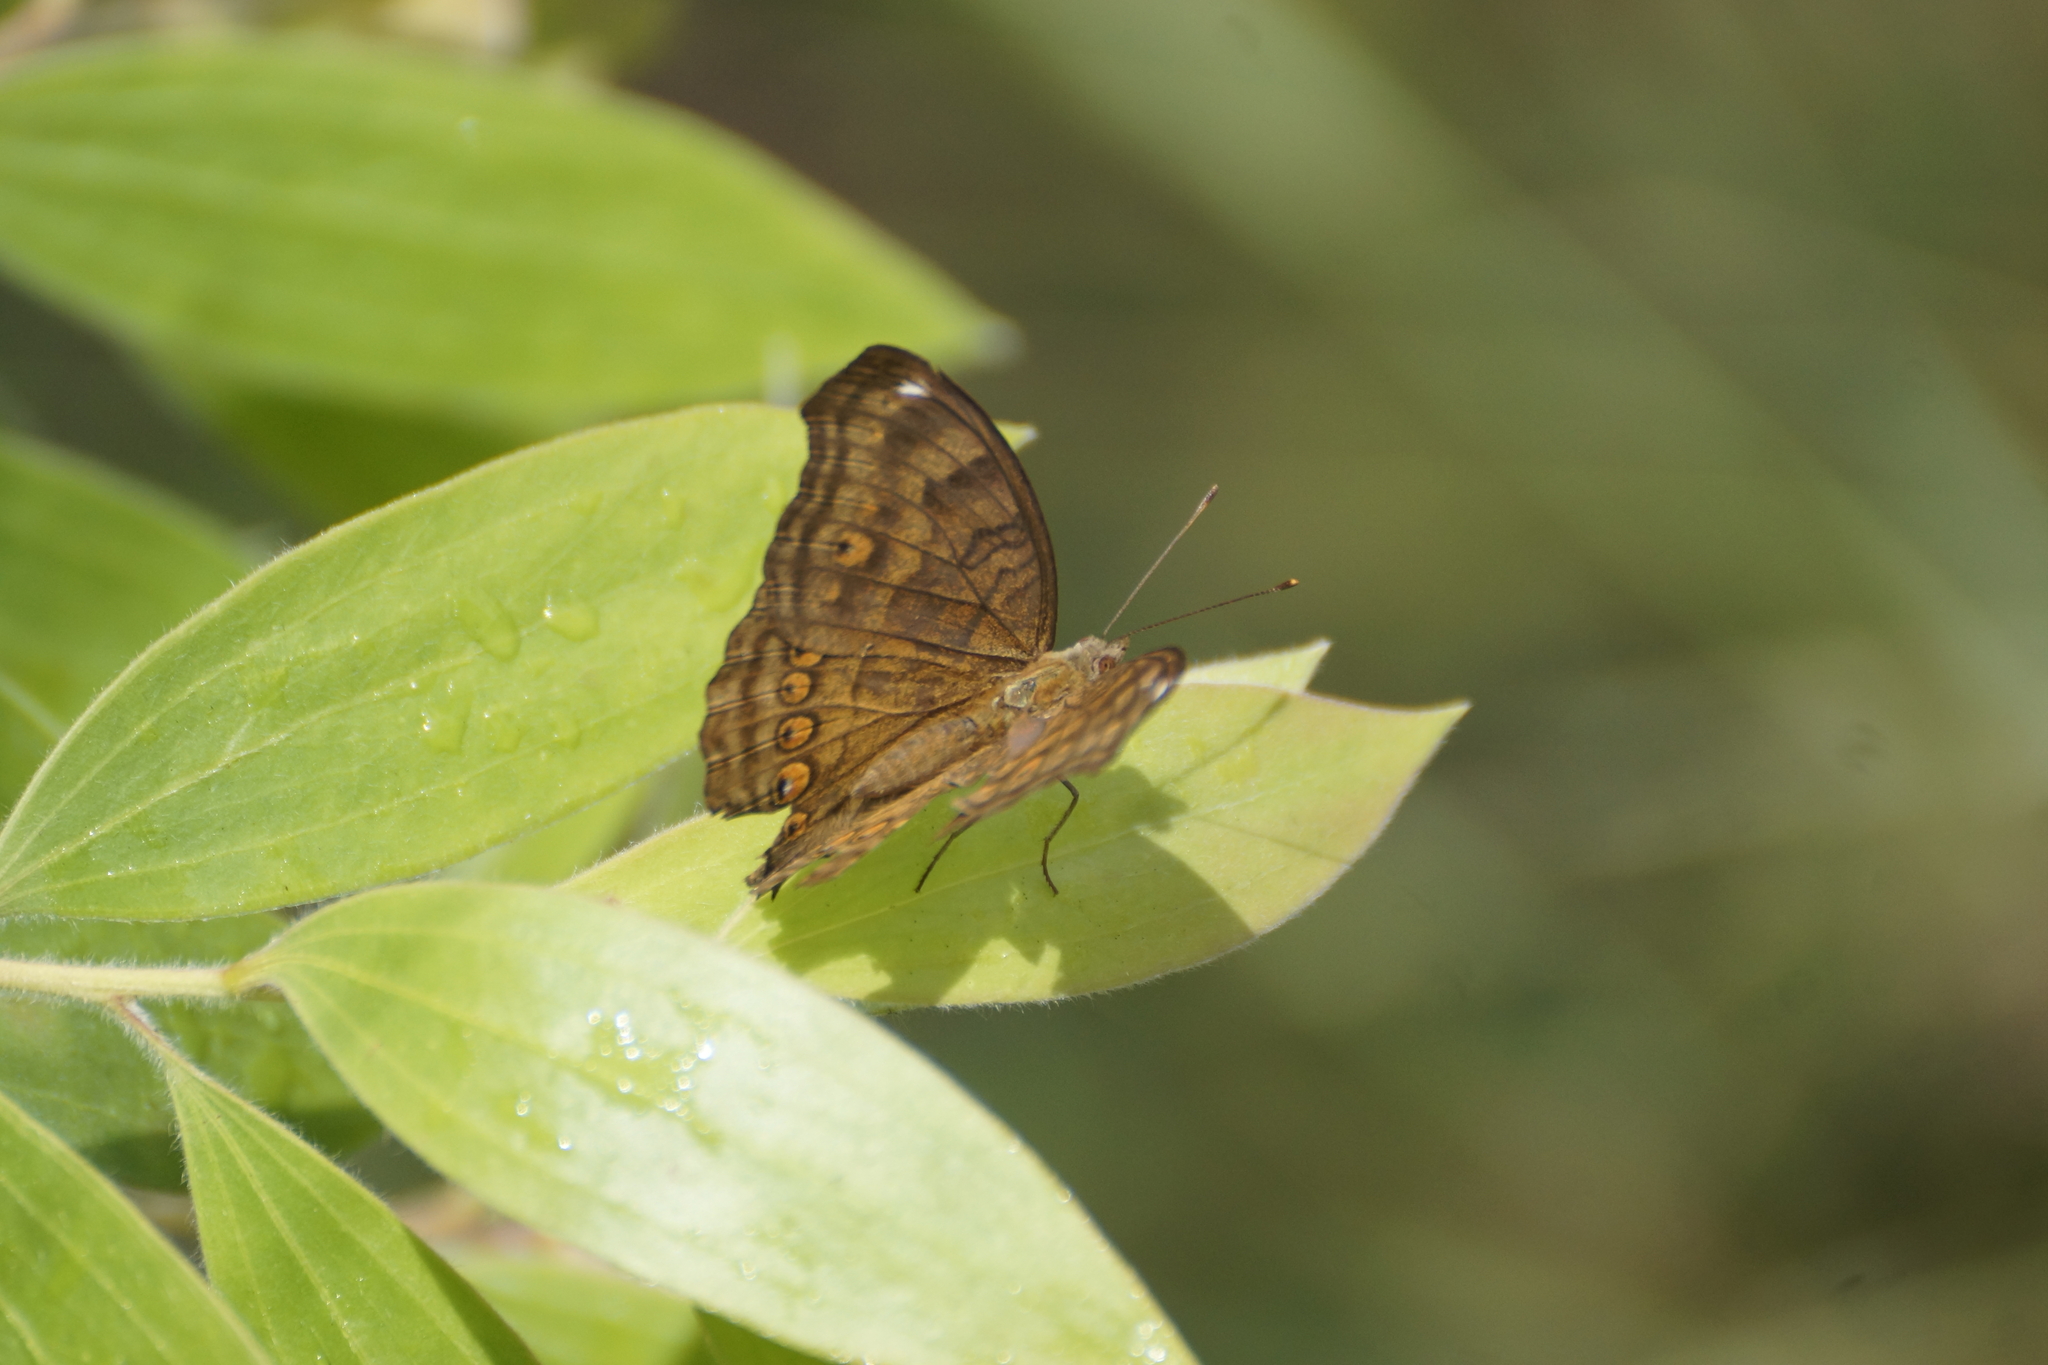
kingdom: Animalia
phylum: Arthropoda
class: Insecta
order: Lepidoptera
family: Nymphalidae
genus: Junonia
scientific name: Junonia hedonia
